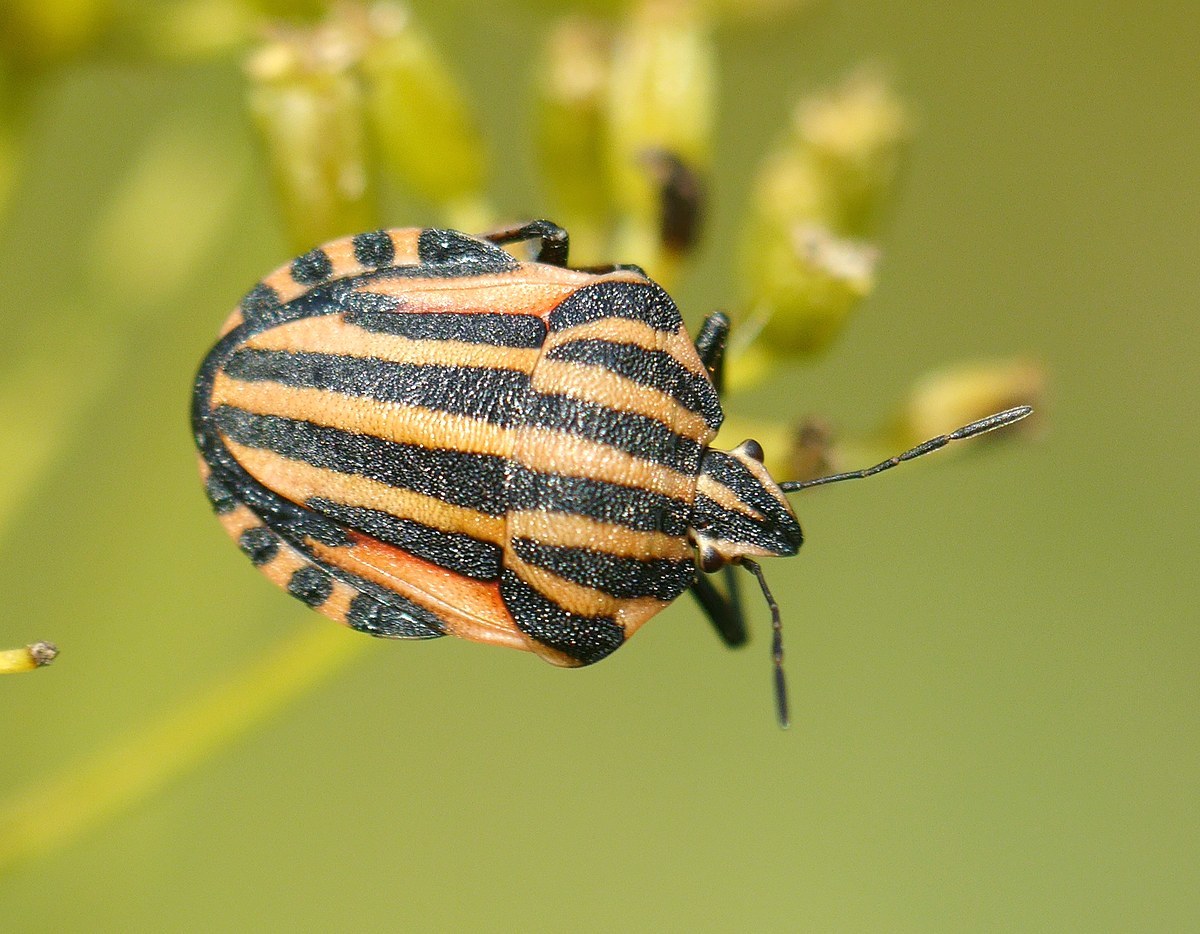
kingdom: Animalia
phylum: Arthropoda
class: Insecta
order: Hemiptera
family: Pentatomidae
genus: Graphosoma
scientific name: Graphosoma italicum
